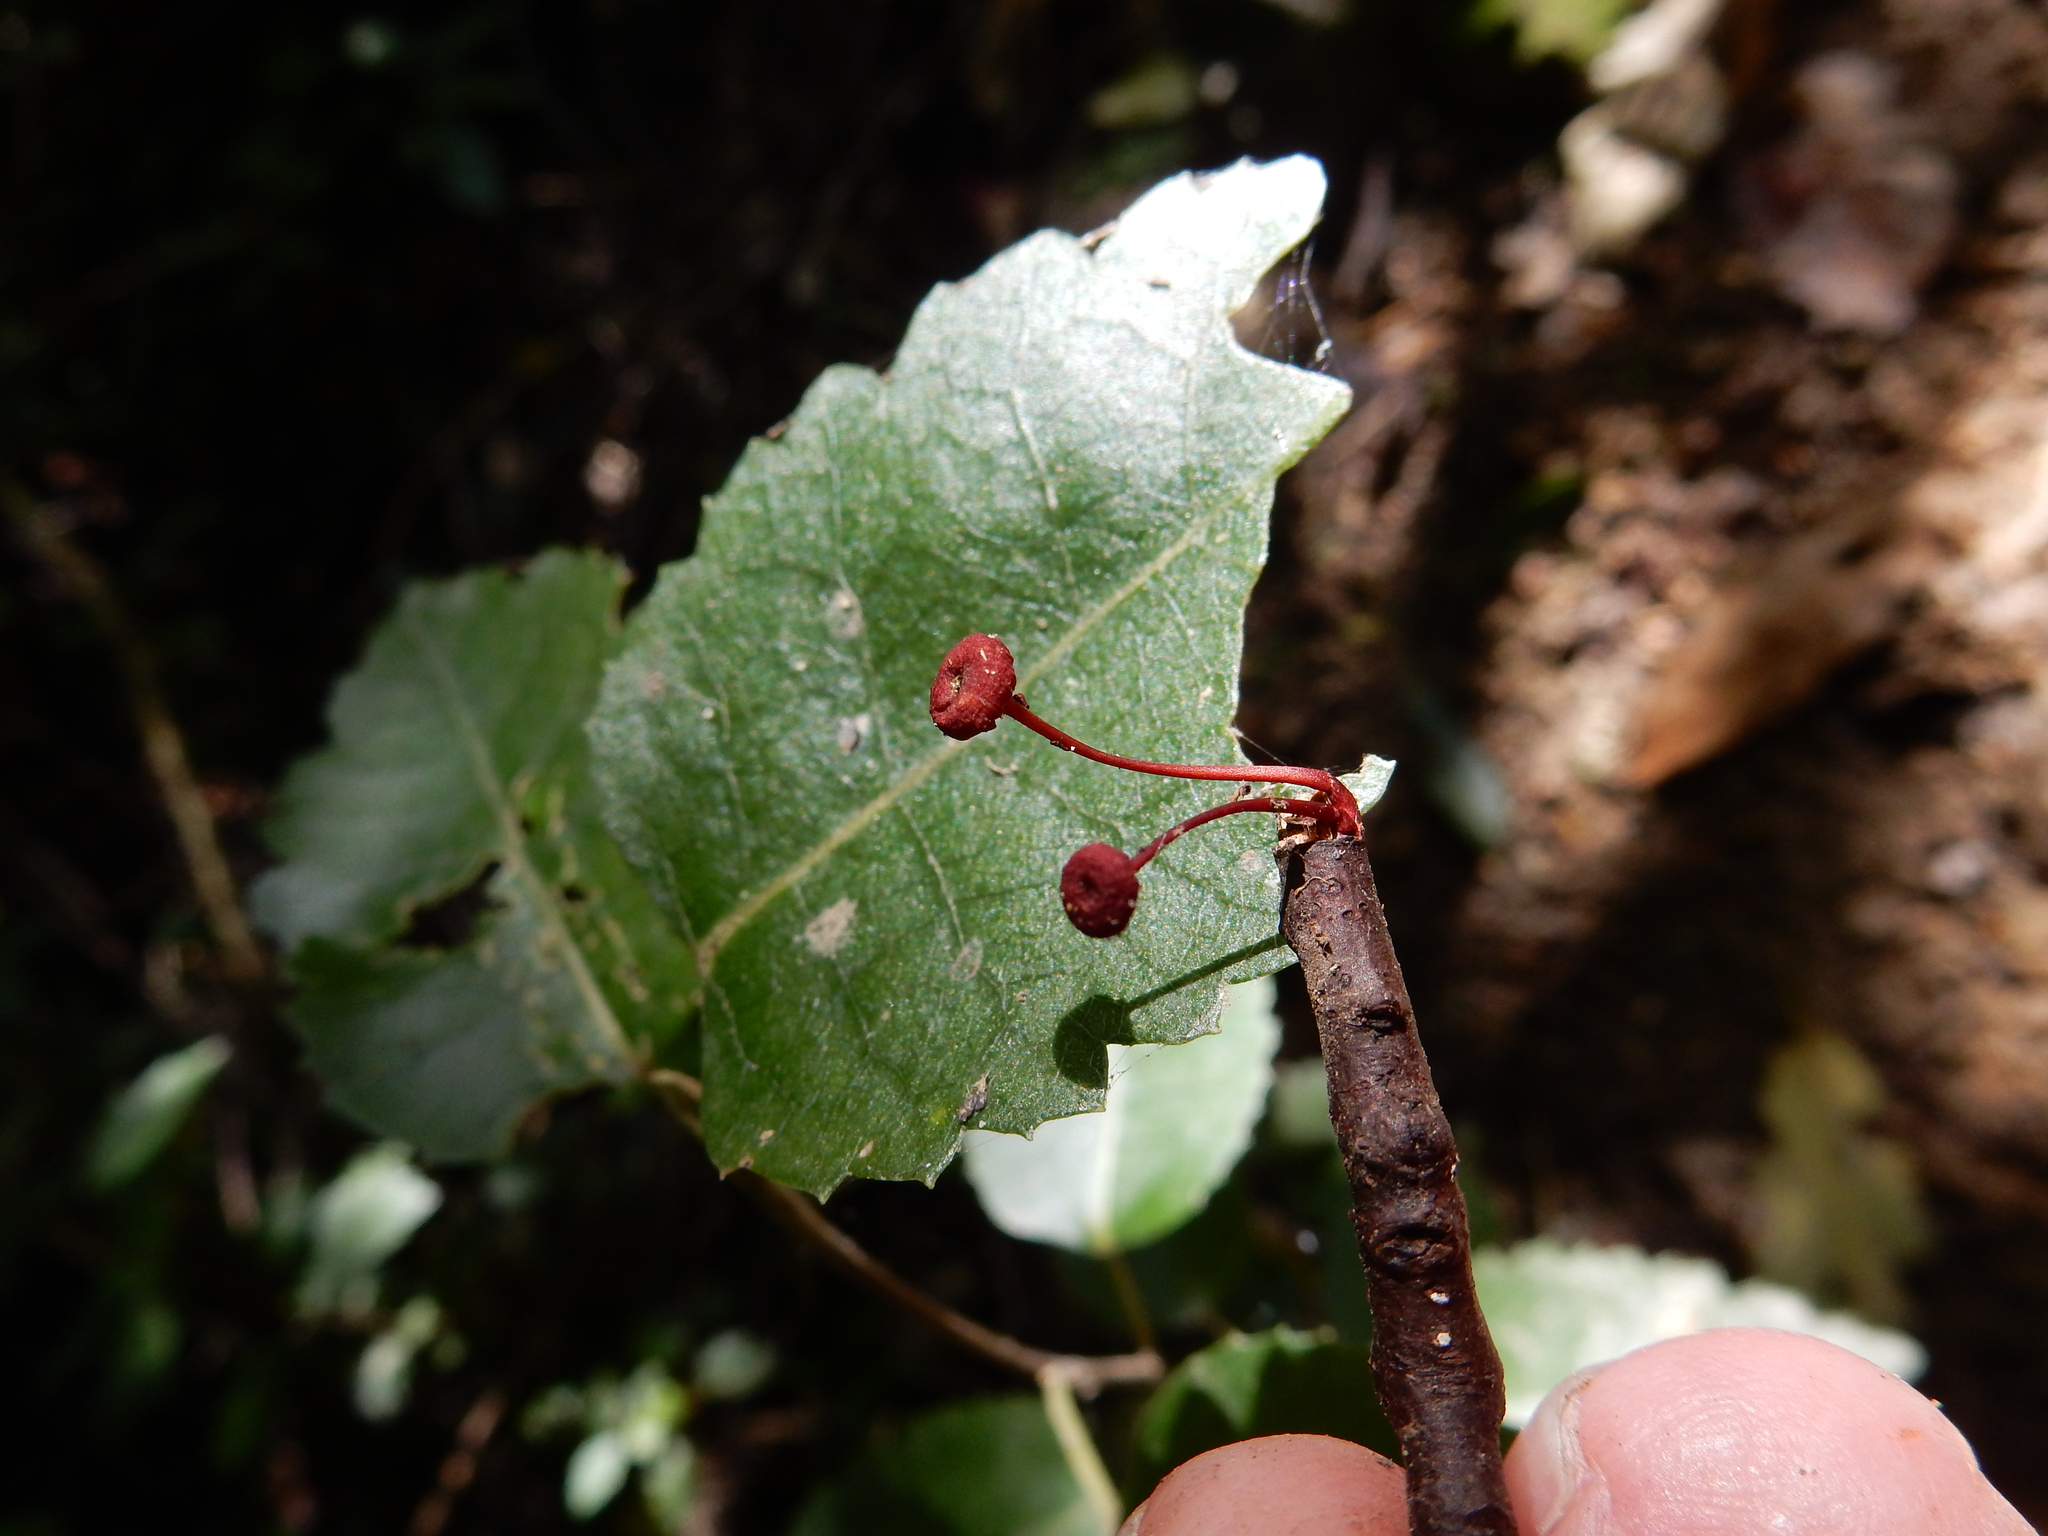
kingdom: Fungi
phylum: Basidiomycota
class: Agaricomycetes
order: Agaricales
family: Mycenaceae
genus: Cruentomycena
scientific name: Cruentomycena viscidocruenta
